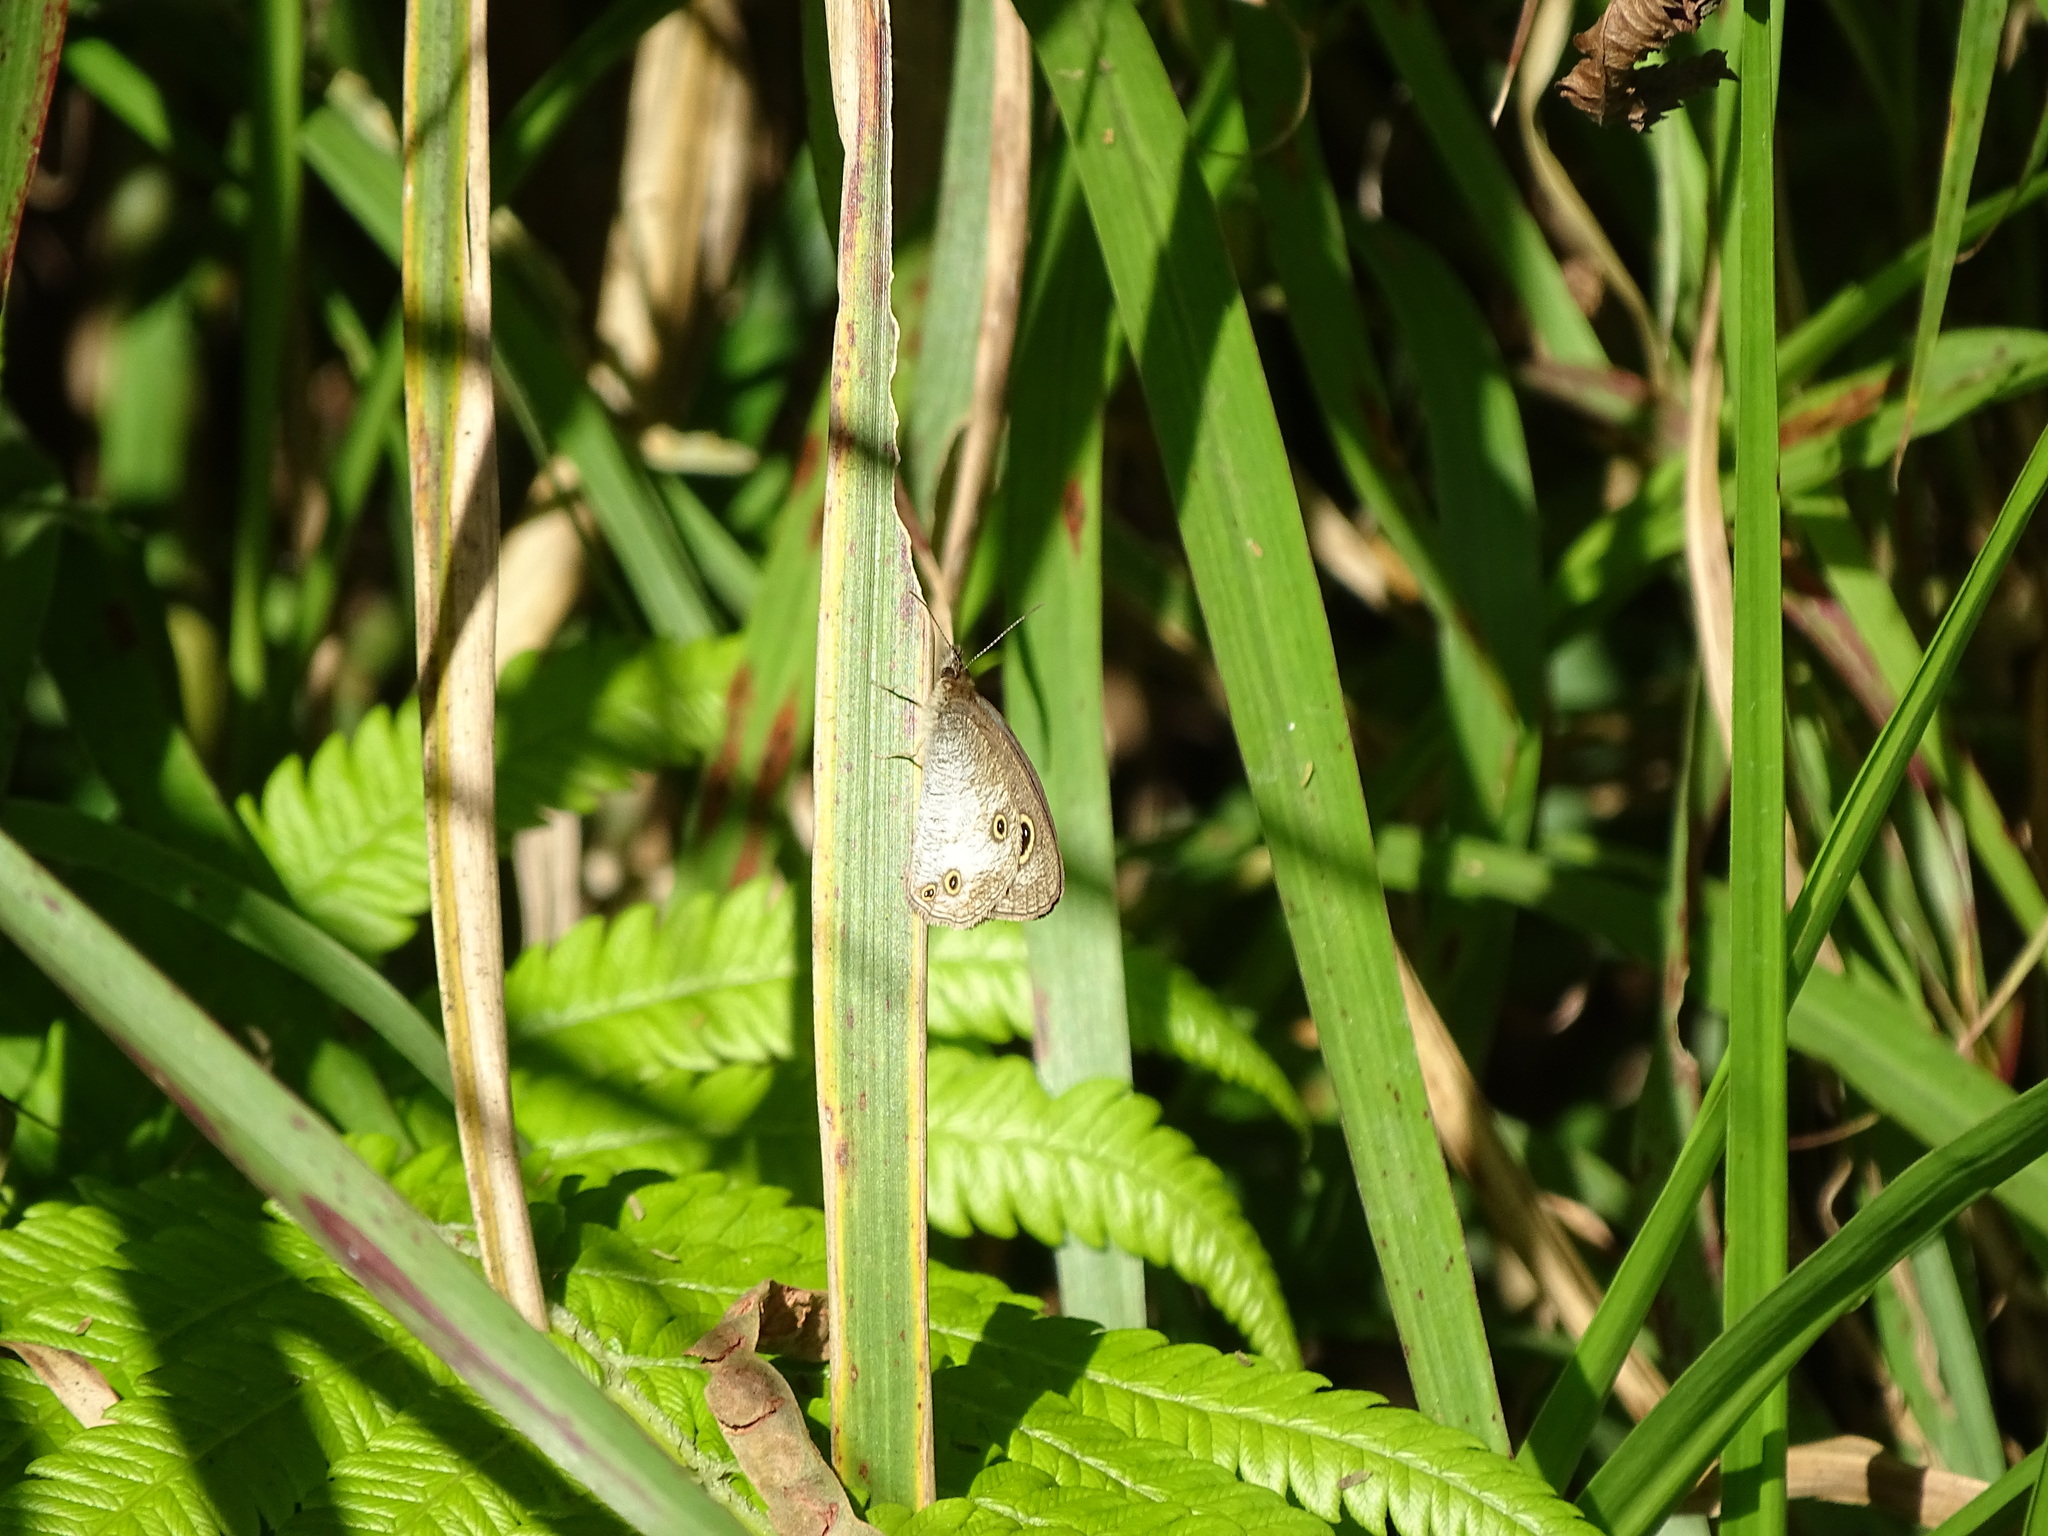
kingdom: Animalia
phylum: Arthropoda
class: Insecta
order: Lepidoptera
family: Nymphalidae
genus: Ypthima
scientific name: Ypthima pandocus
